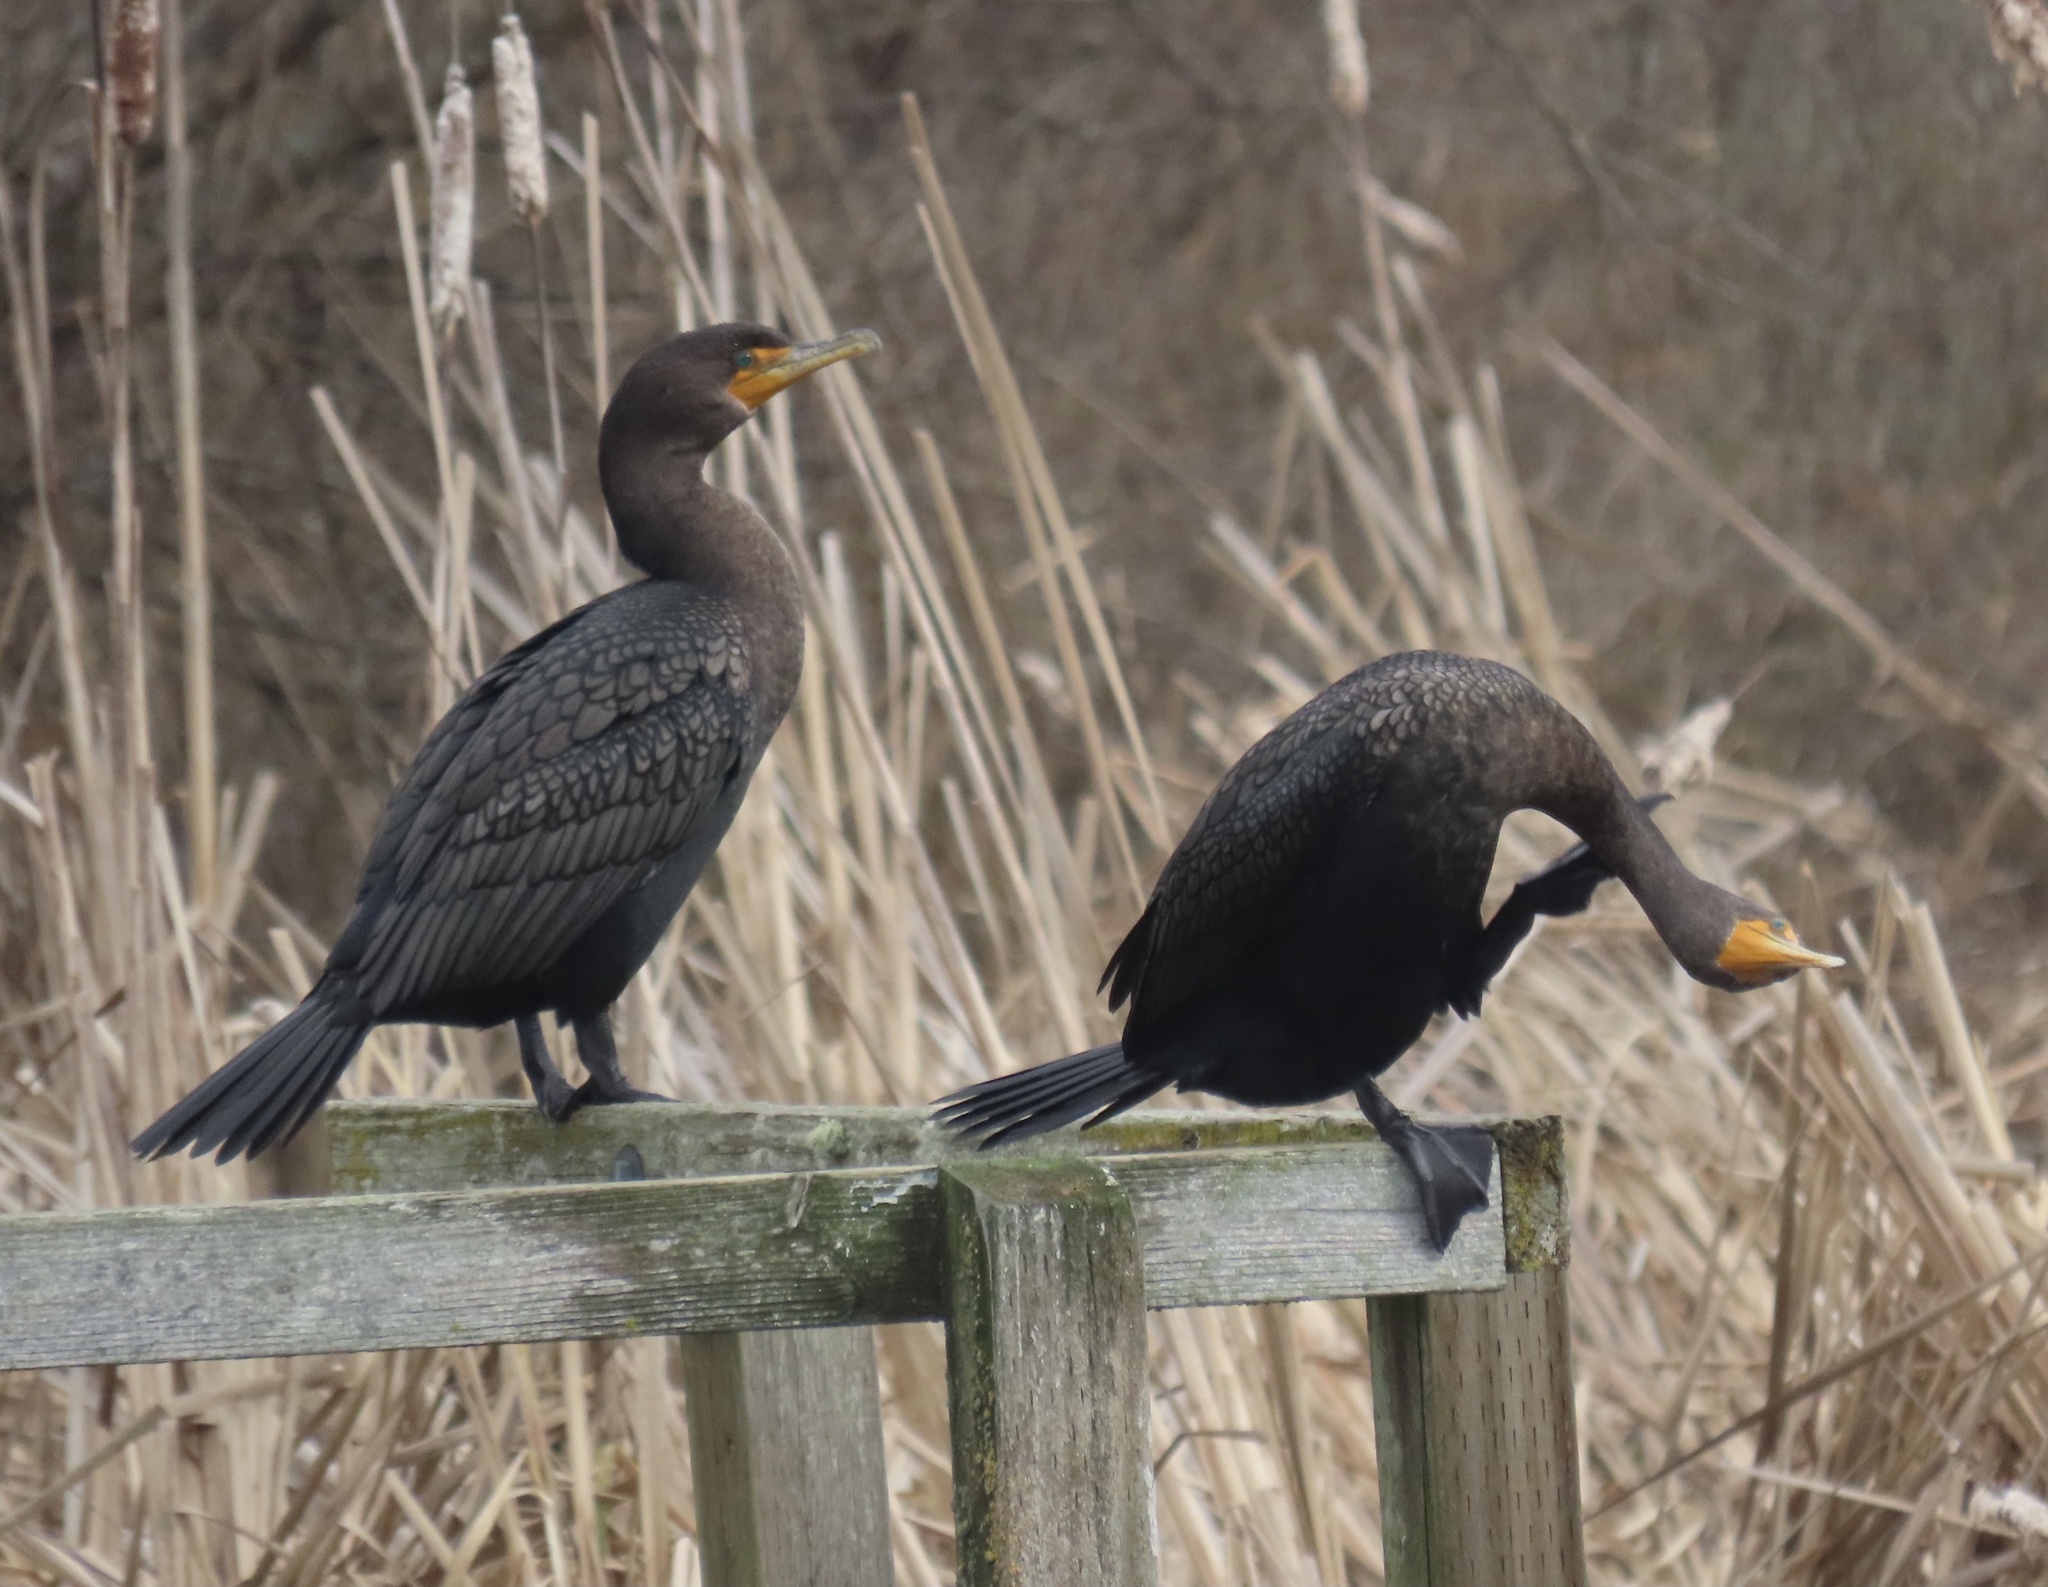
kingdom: Animalia
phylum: Chordata
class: Aves
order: Suliformes
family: Phalacrocoracidae
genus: Phalacrocorax
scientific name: Phalacrocorax auritus
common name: Double-crested cormorant
